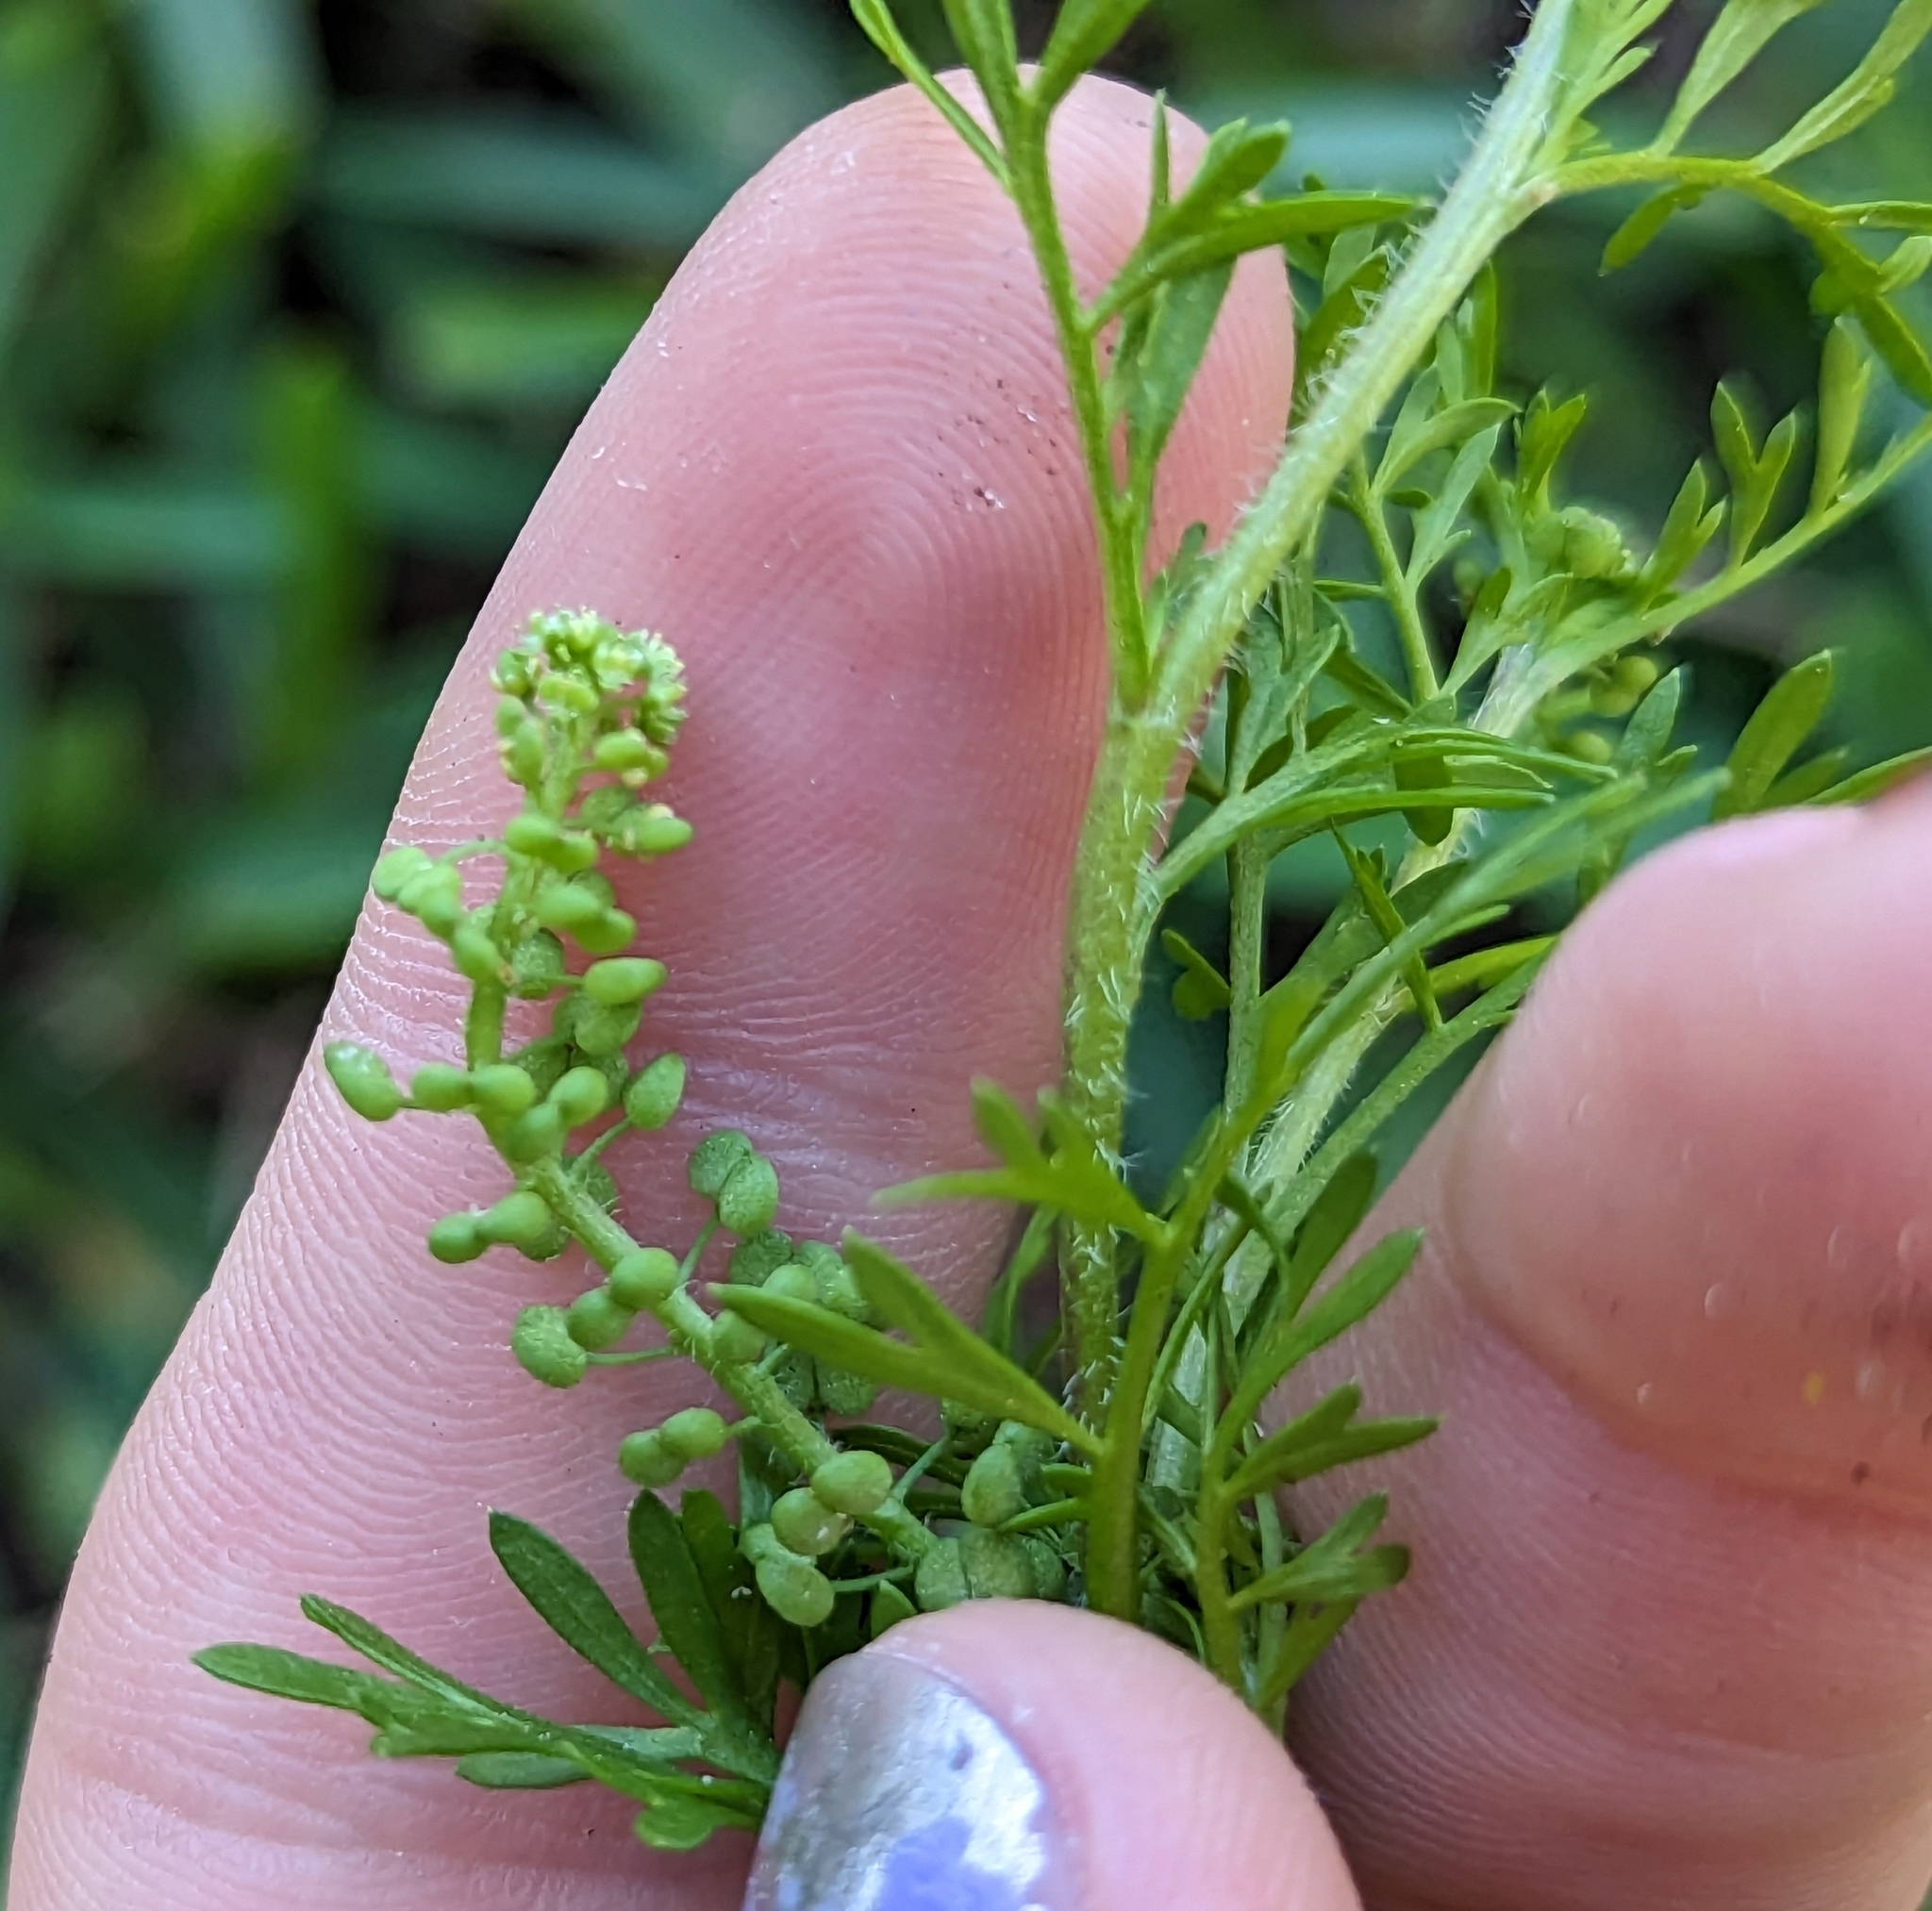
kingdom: Plantae
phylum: Tracheophyta
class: Magnoliopsida
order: Brassicales
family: Brassicaceae
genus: Lepidium
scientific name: Lepidium didymum
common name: Lesser swinecress
